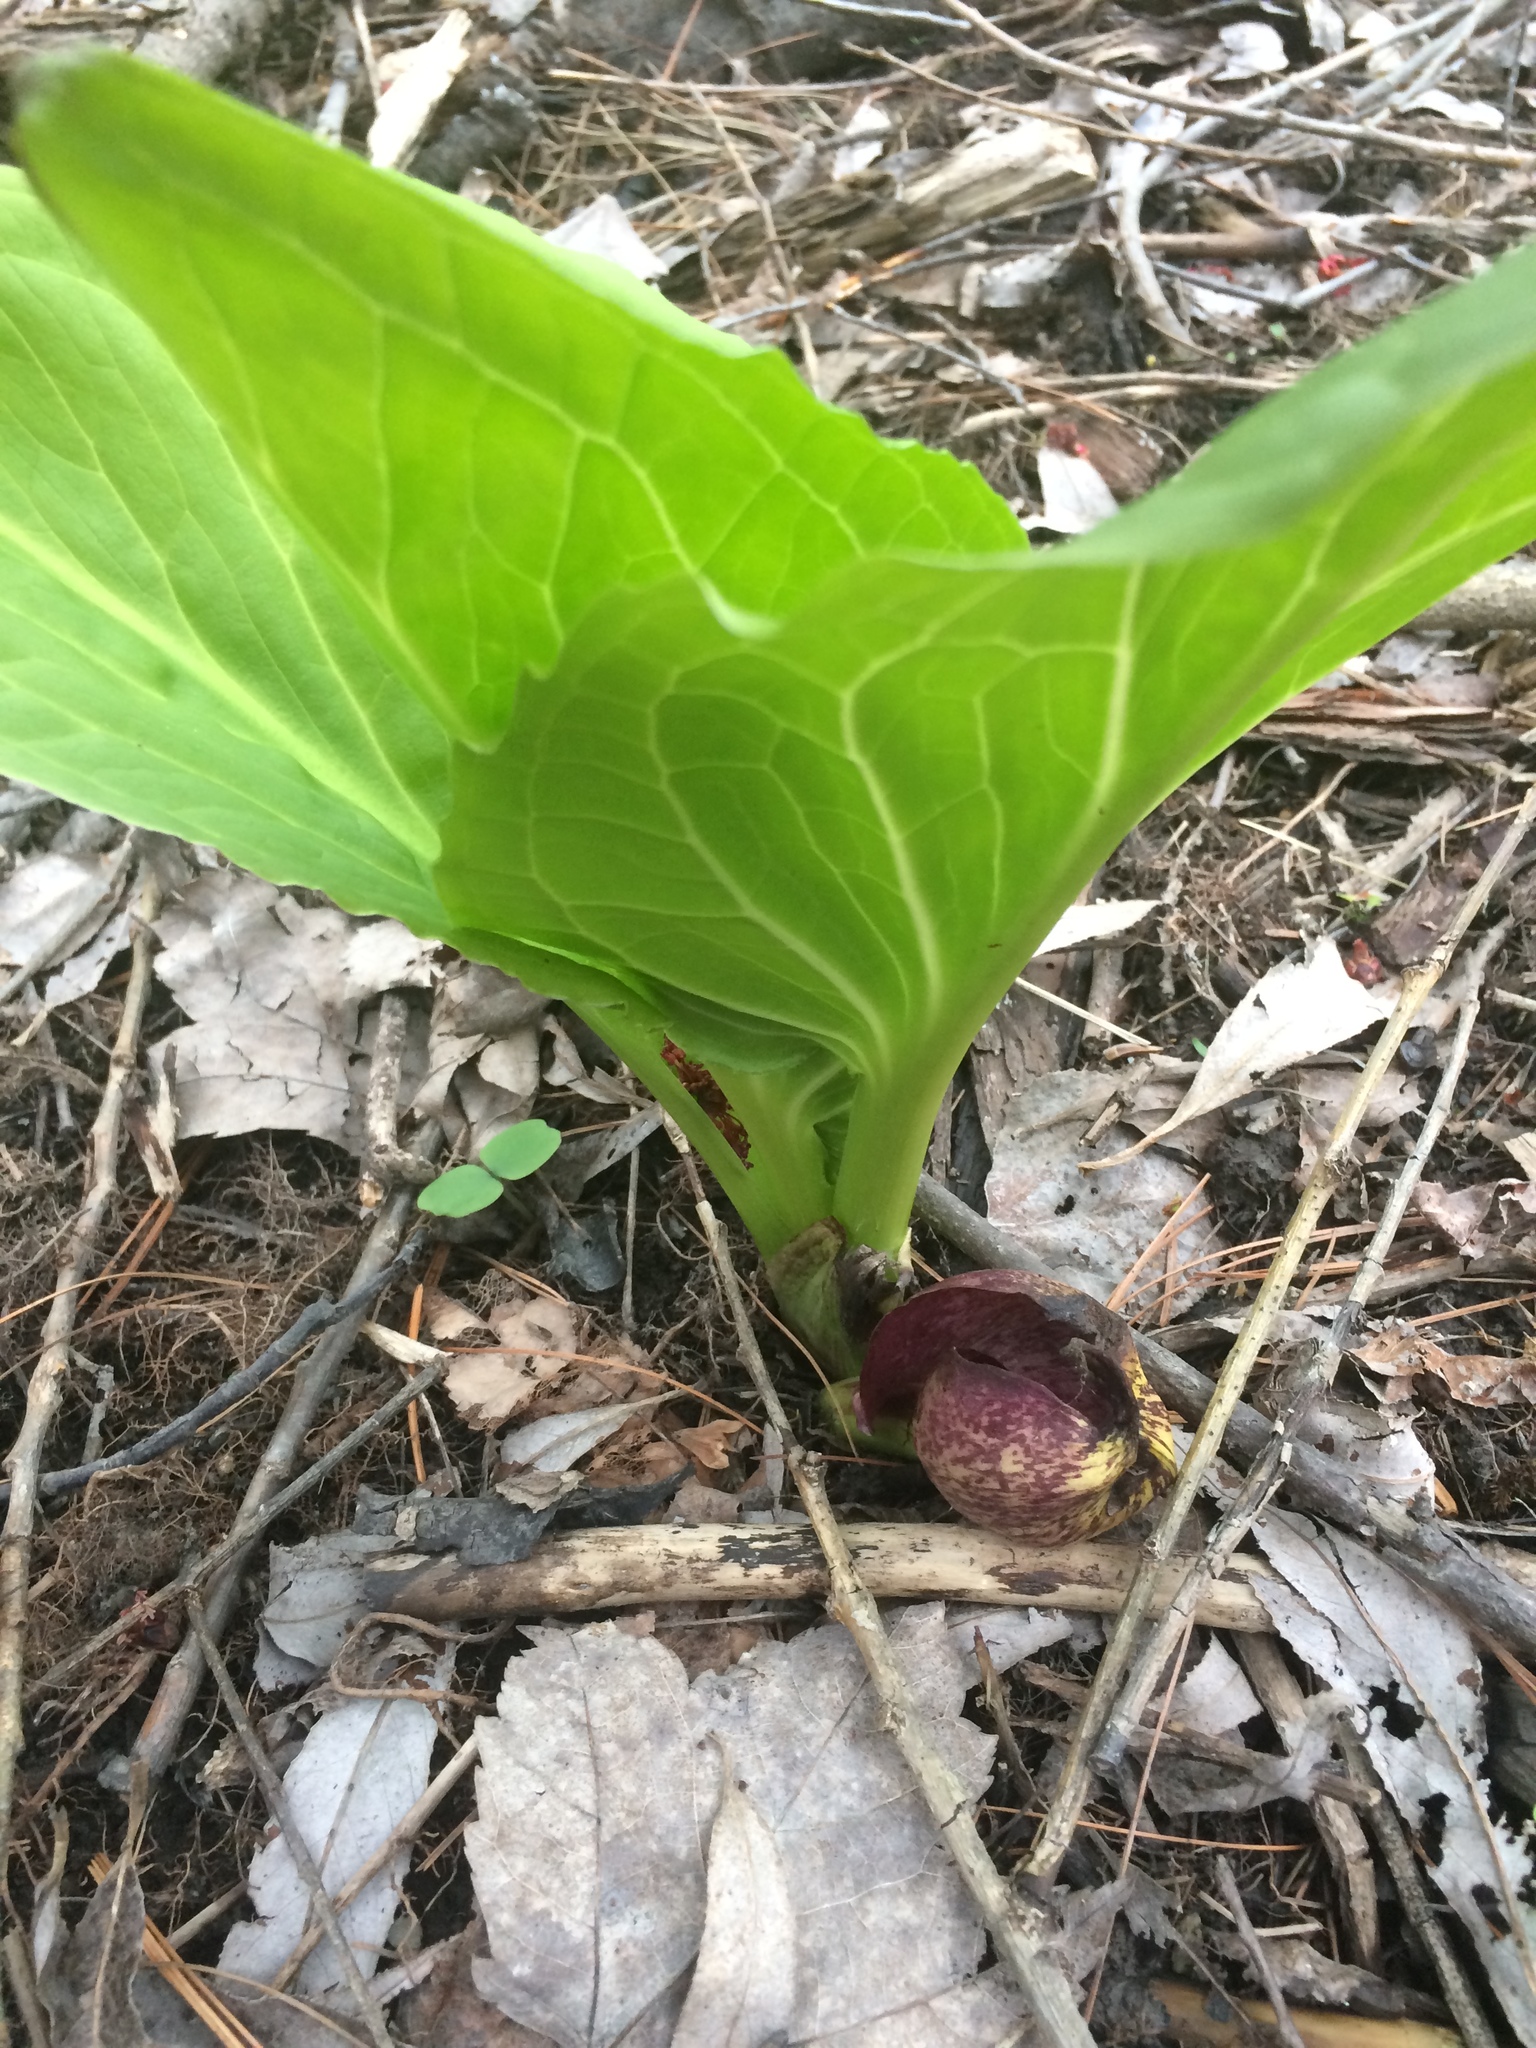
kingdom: Plantae
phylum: Tracheophyta
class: Liliopsida
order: Alismatales
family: Araceae
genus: Symplocarpus
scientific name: Symplocarpus foetidus
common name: Eastern skunk cabbage
